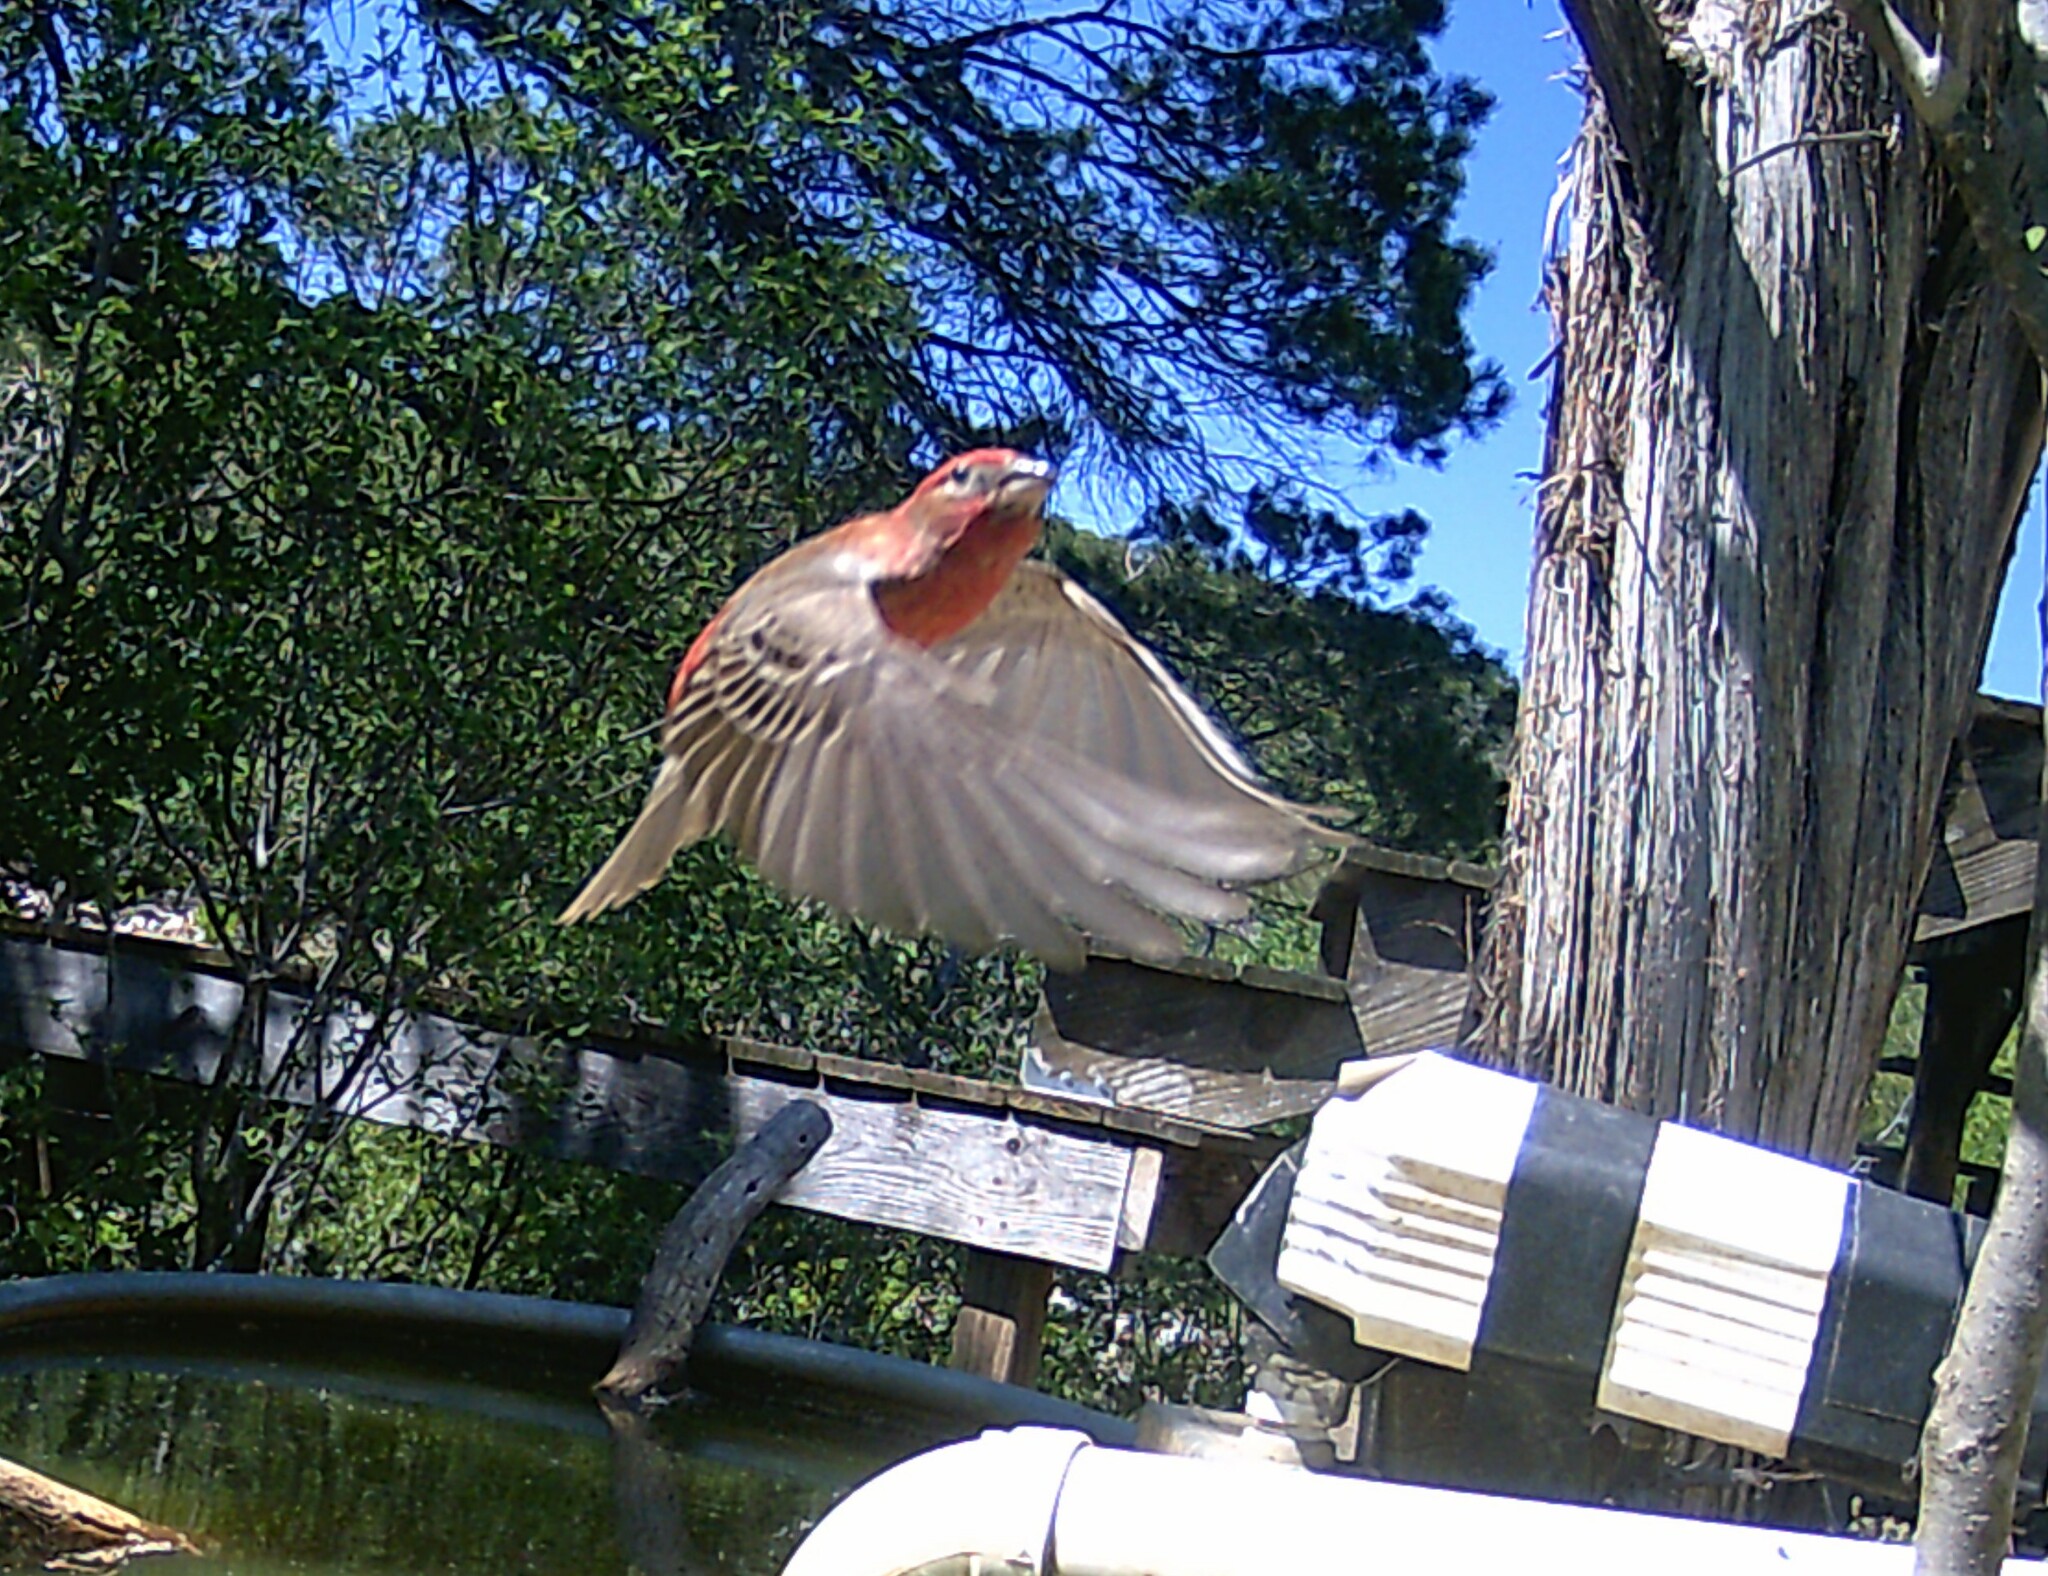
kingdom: Animalia
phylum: Chordata
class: Aves
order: Passeriformes
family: Fringillidae
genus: Haemorhous
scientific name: Haemorhous mexicanus
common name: House finch
